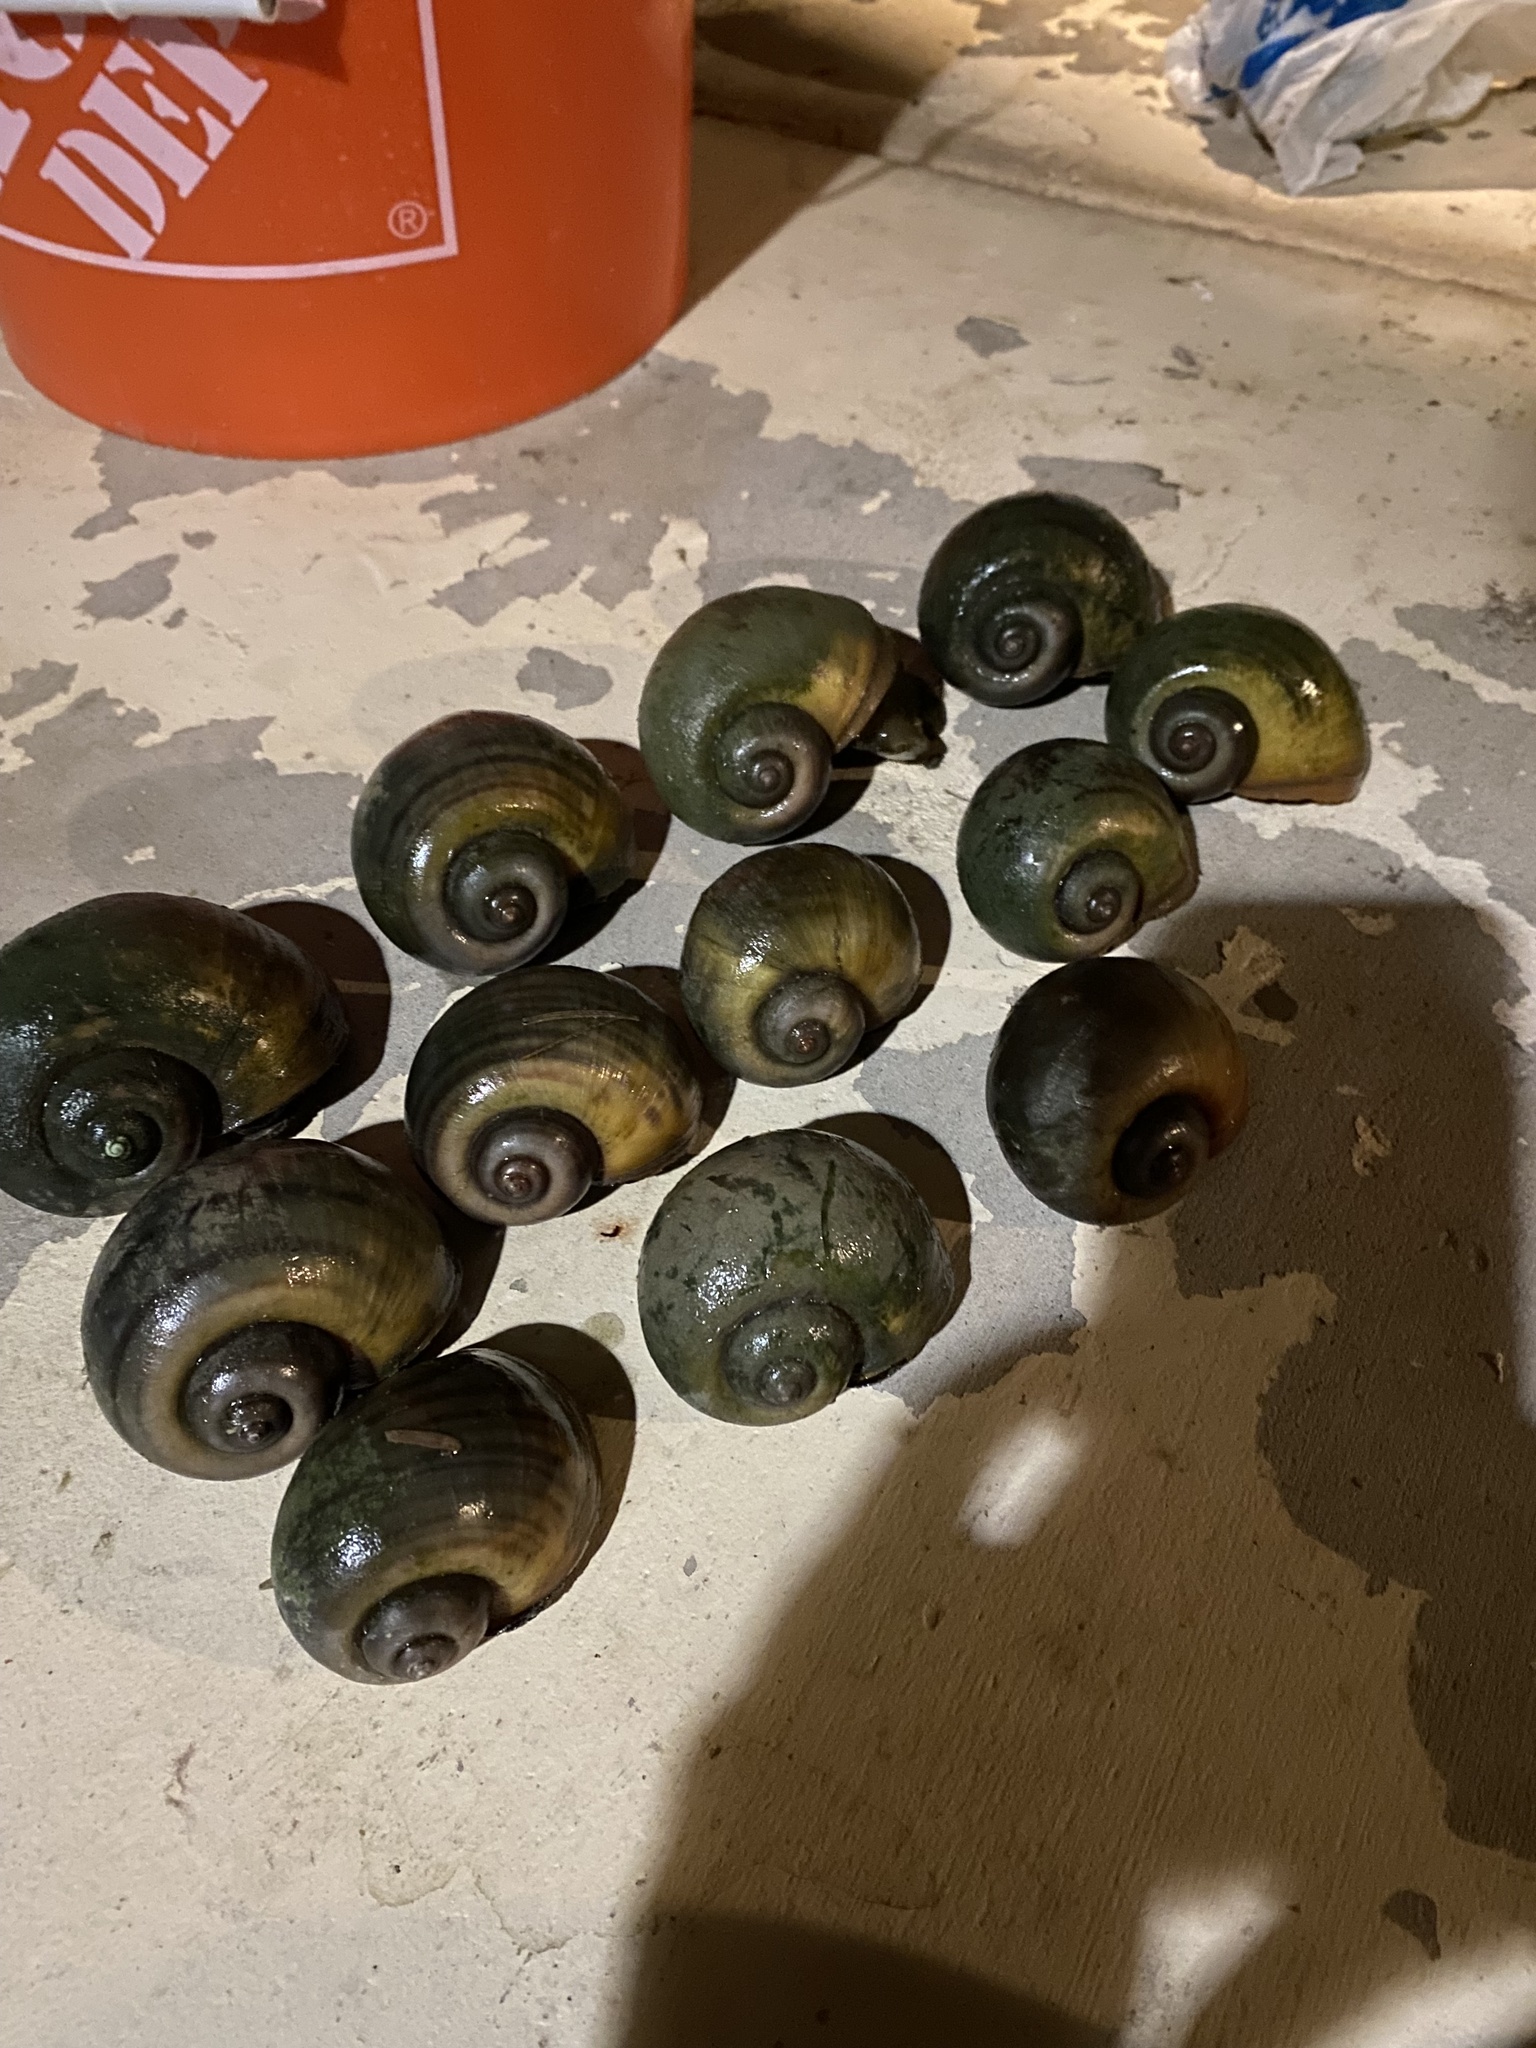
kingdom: Animalia
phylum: Mollusca
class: Gastropoda
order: Architaenioglossa
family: Ampullariidae
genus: Pomacea
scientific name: Pomacea maculata
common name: Giant applesnail
